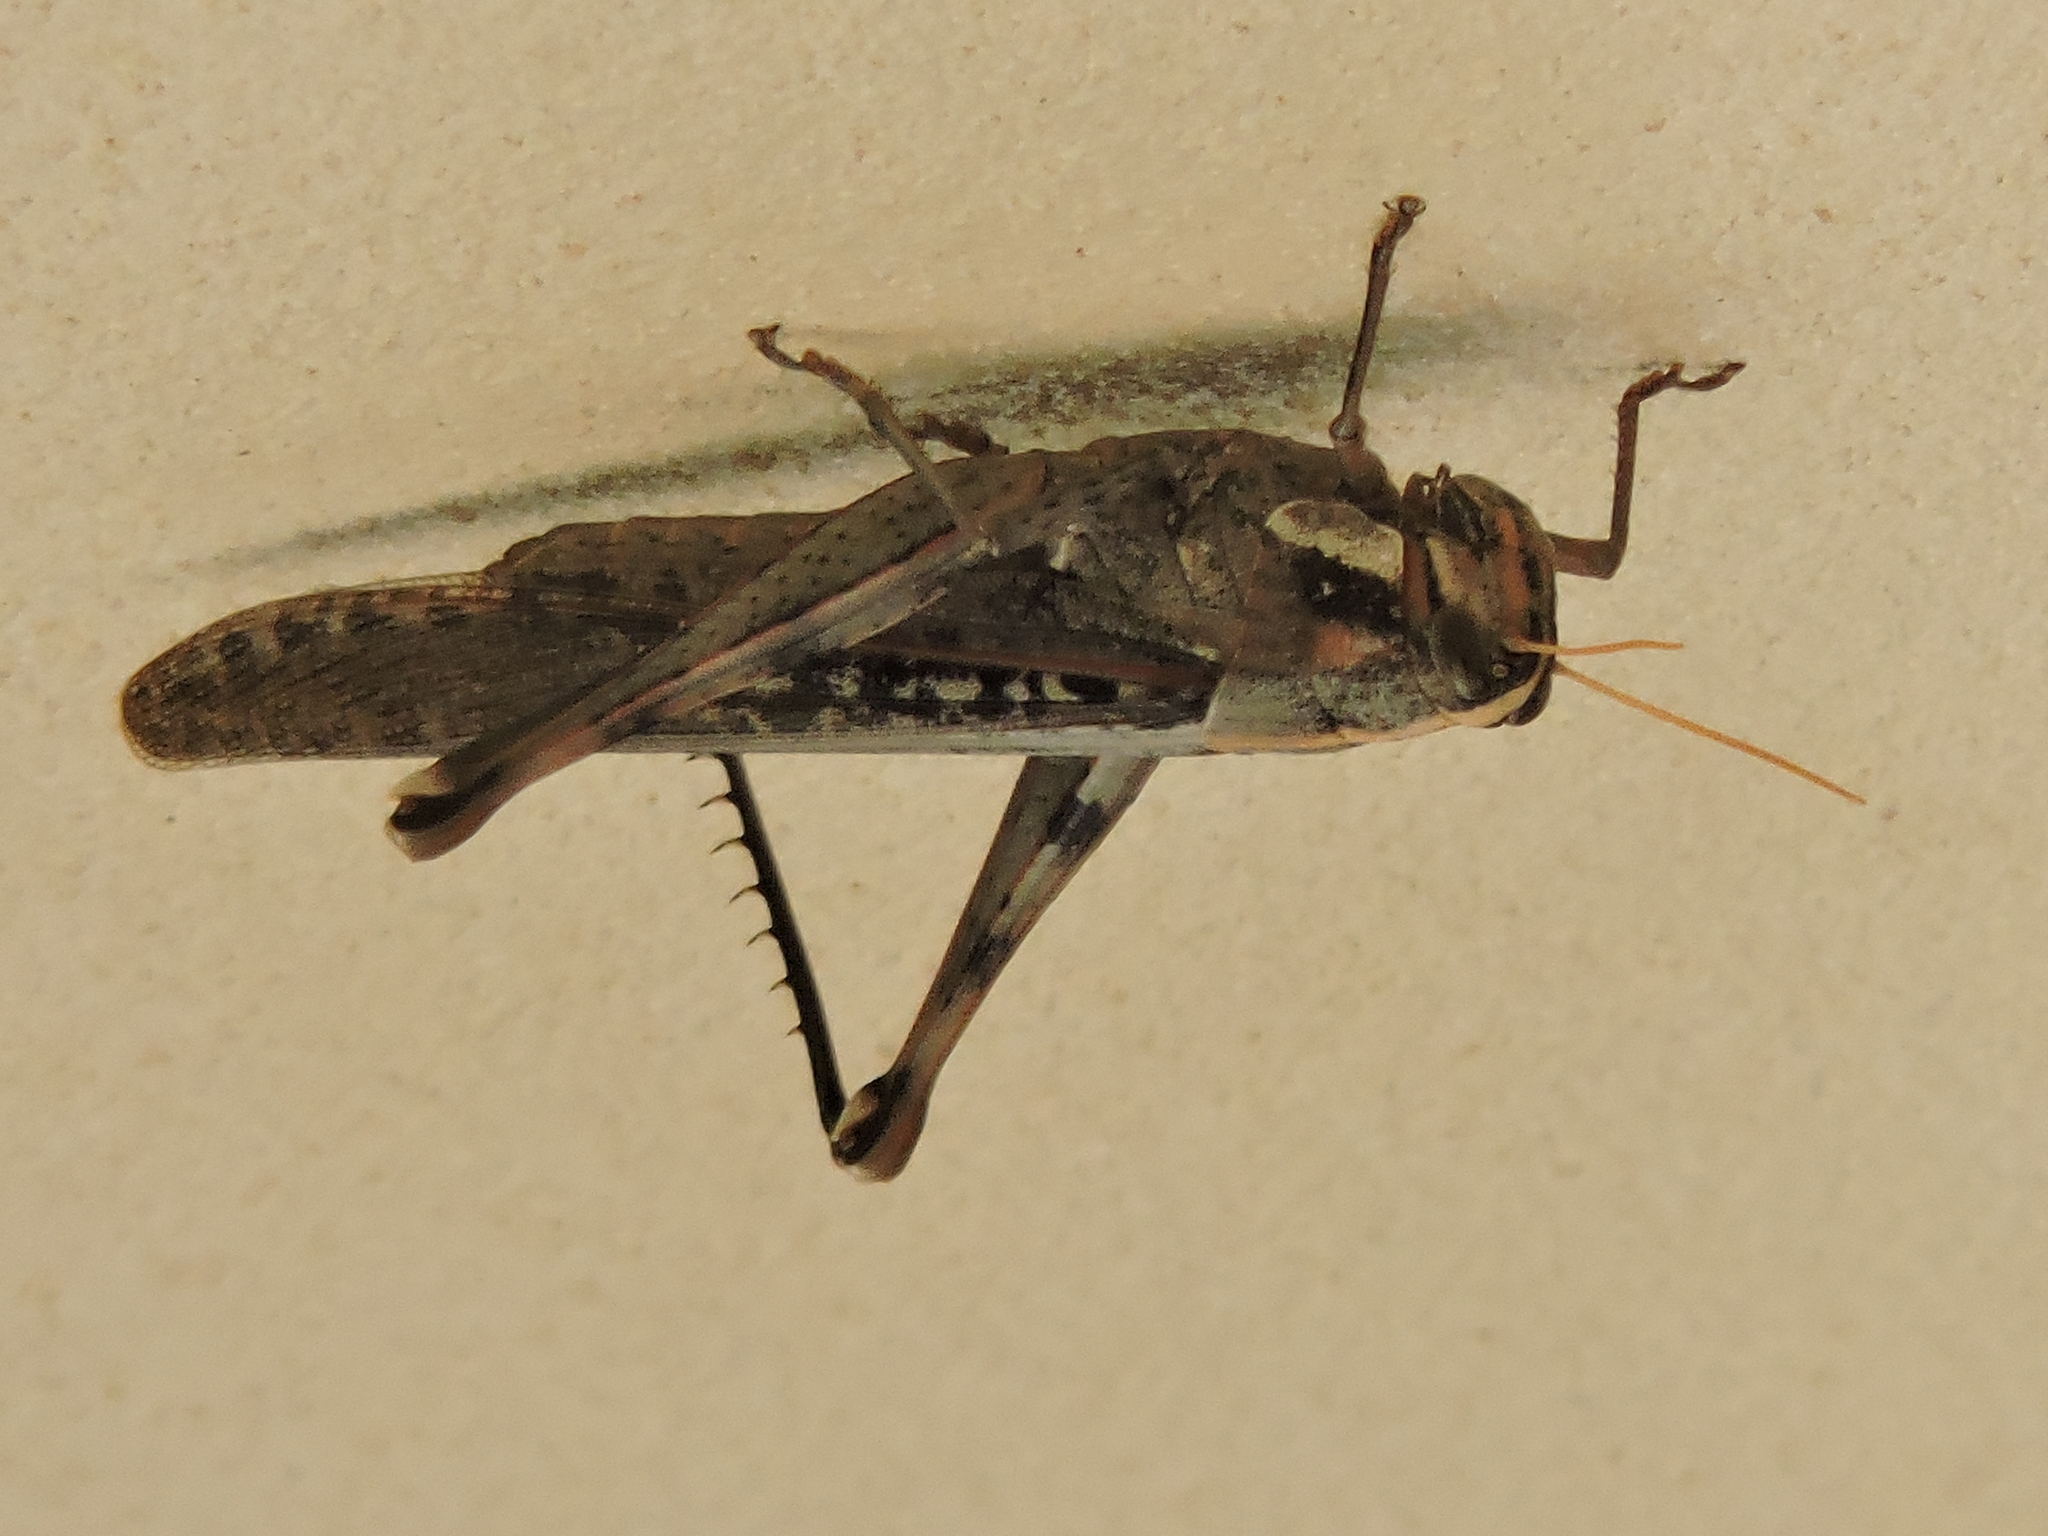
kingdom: Animalia
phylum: Arthropoda
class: Insecta
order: Orthoptera
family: Acrididae
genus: Schistocerca
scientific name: Schistocerca nitens
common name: Vagrant grasshopper
